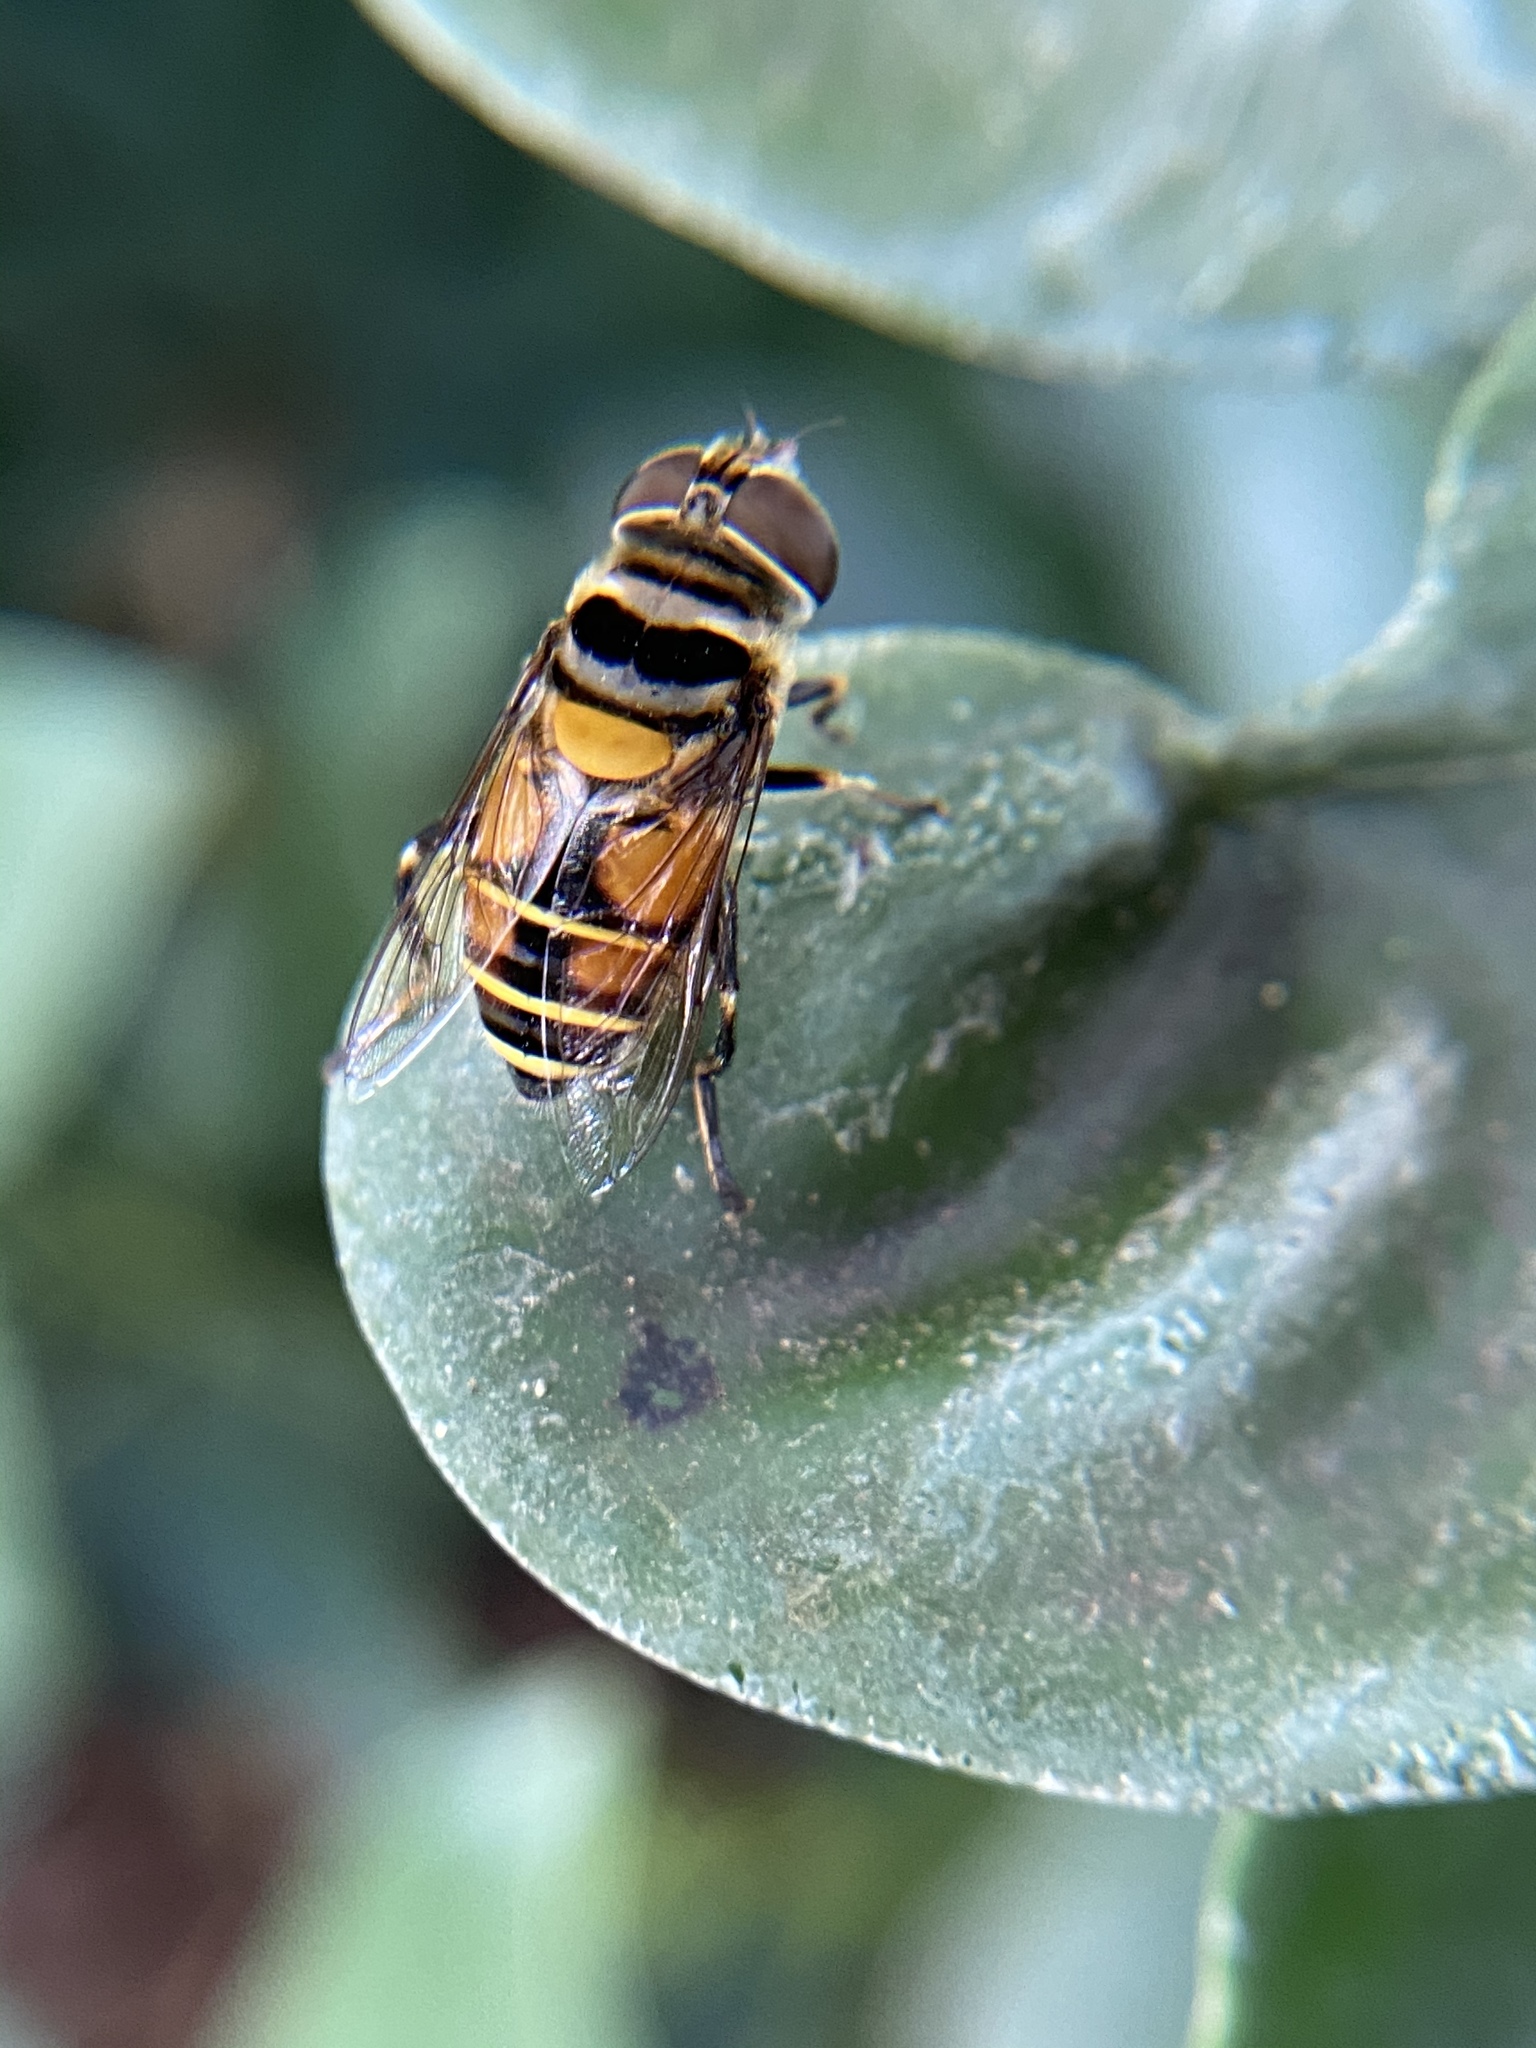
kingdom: Animalia
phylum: Arthropoda
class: Insecta
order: Diptera
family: Syrphidae
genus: Palpada
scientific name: Palpada agrorum
